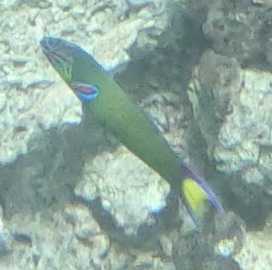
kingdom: Animalia
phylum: Chordata
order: Perciformes
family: Labridae
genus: Thalassoma
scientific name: Thalassoma lunare
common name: Blue wrasse
